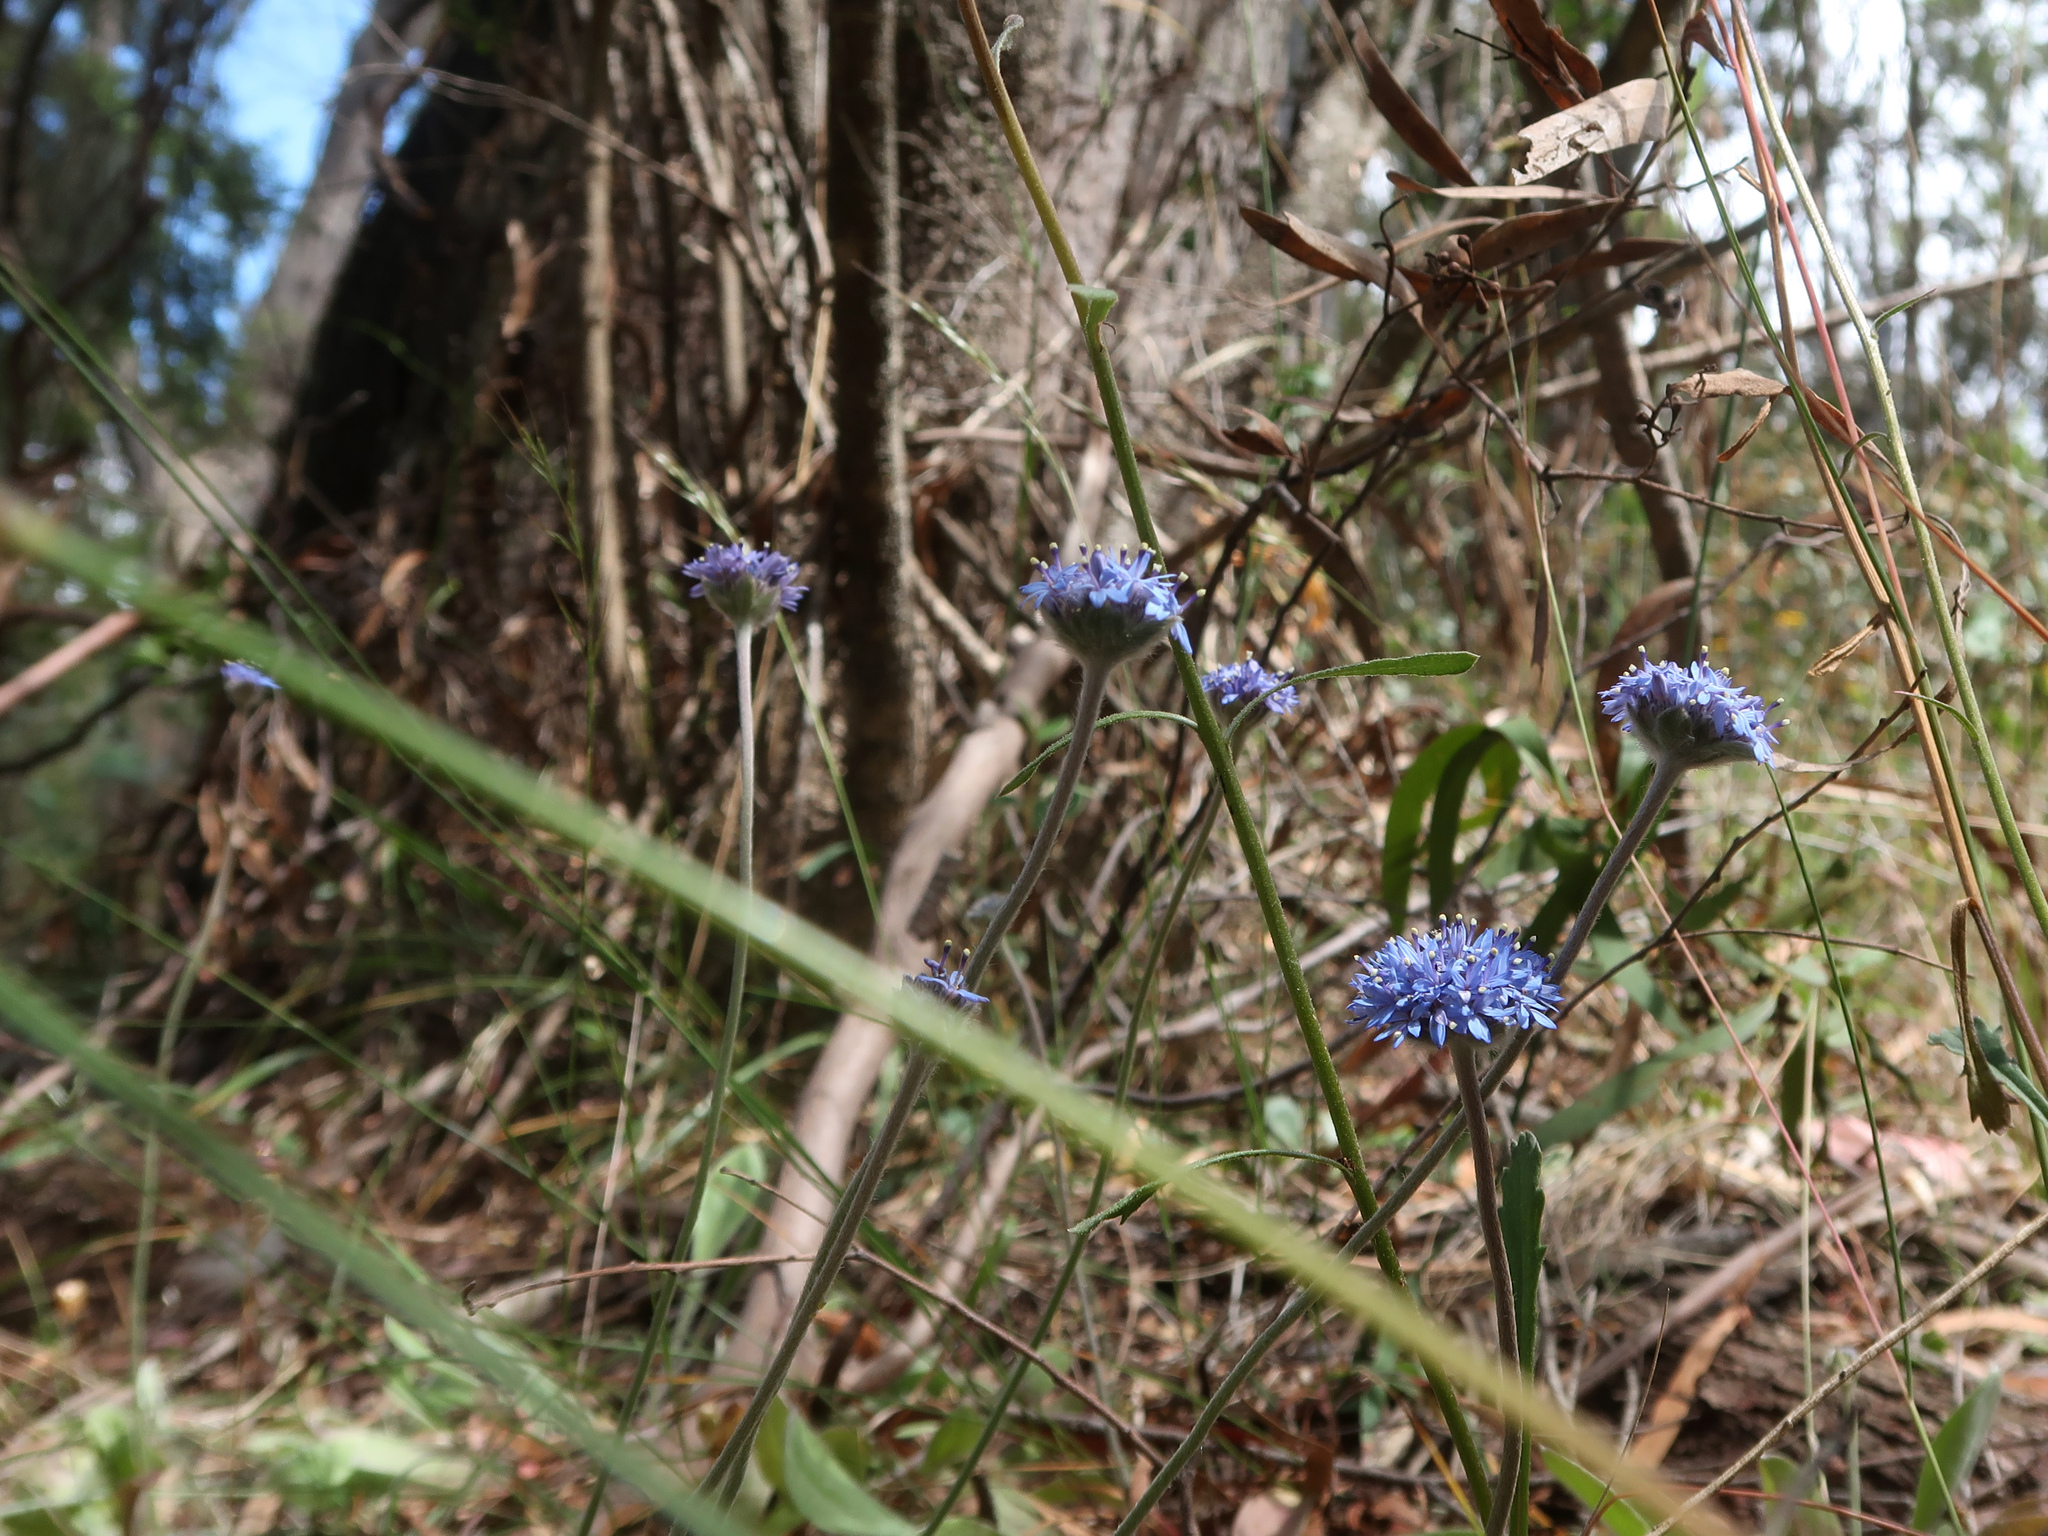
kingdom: Plantae
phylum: Tracheophyta
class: Magnoliopsida
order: Asterales
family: Goodeniaceae
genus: Brunonia
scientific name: Brunonia australis
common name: Blue pincushion
